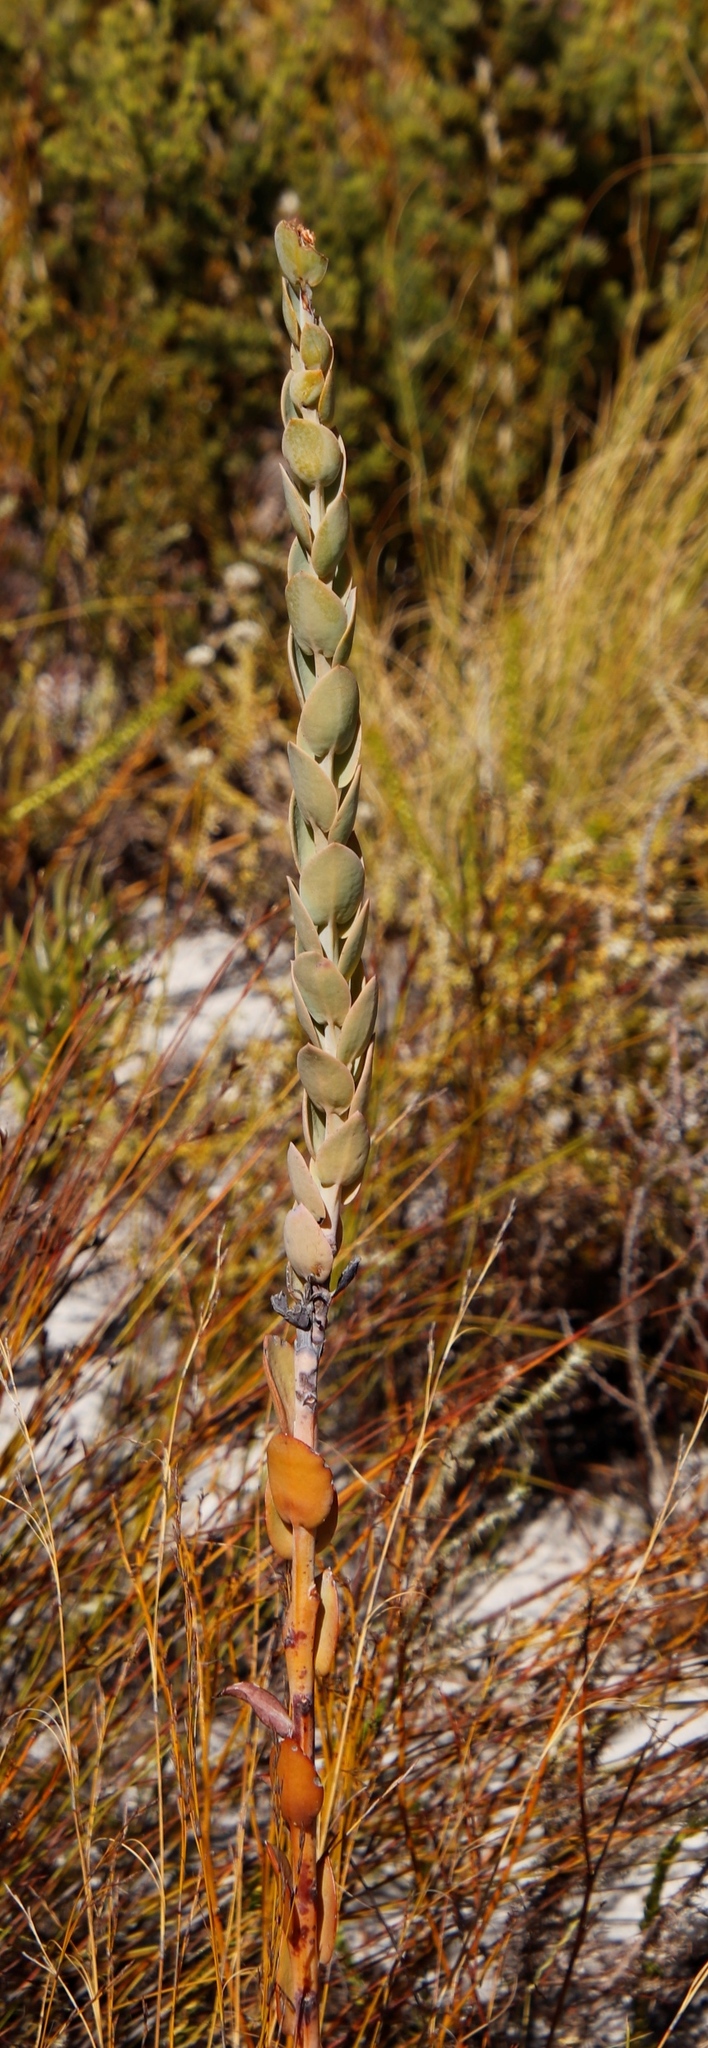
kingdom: Plantae
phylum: Tracheophyta
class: Magnoliopsida
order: Santalales
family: Thesiaceae
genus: Thesium
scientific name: Thesium euphorbioides
